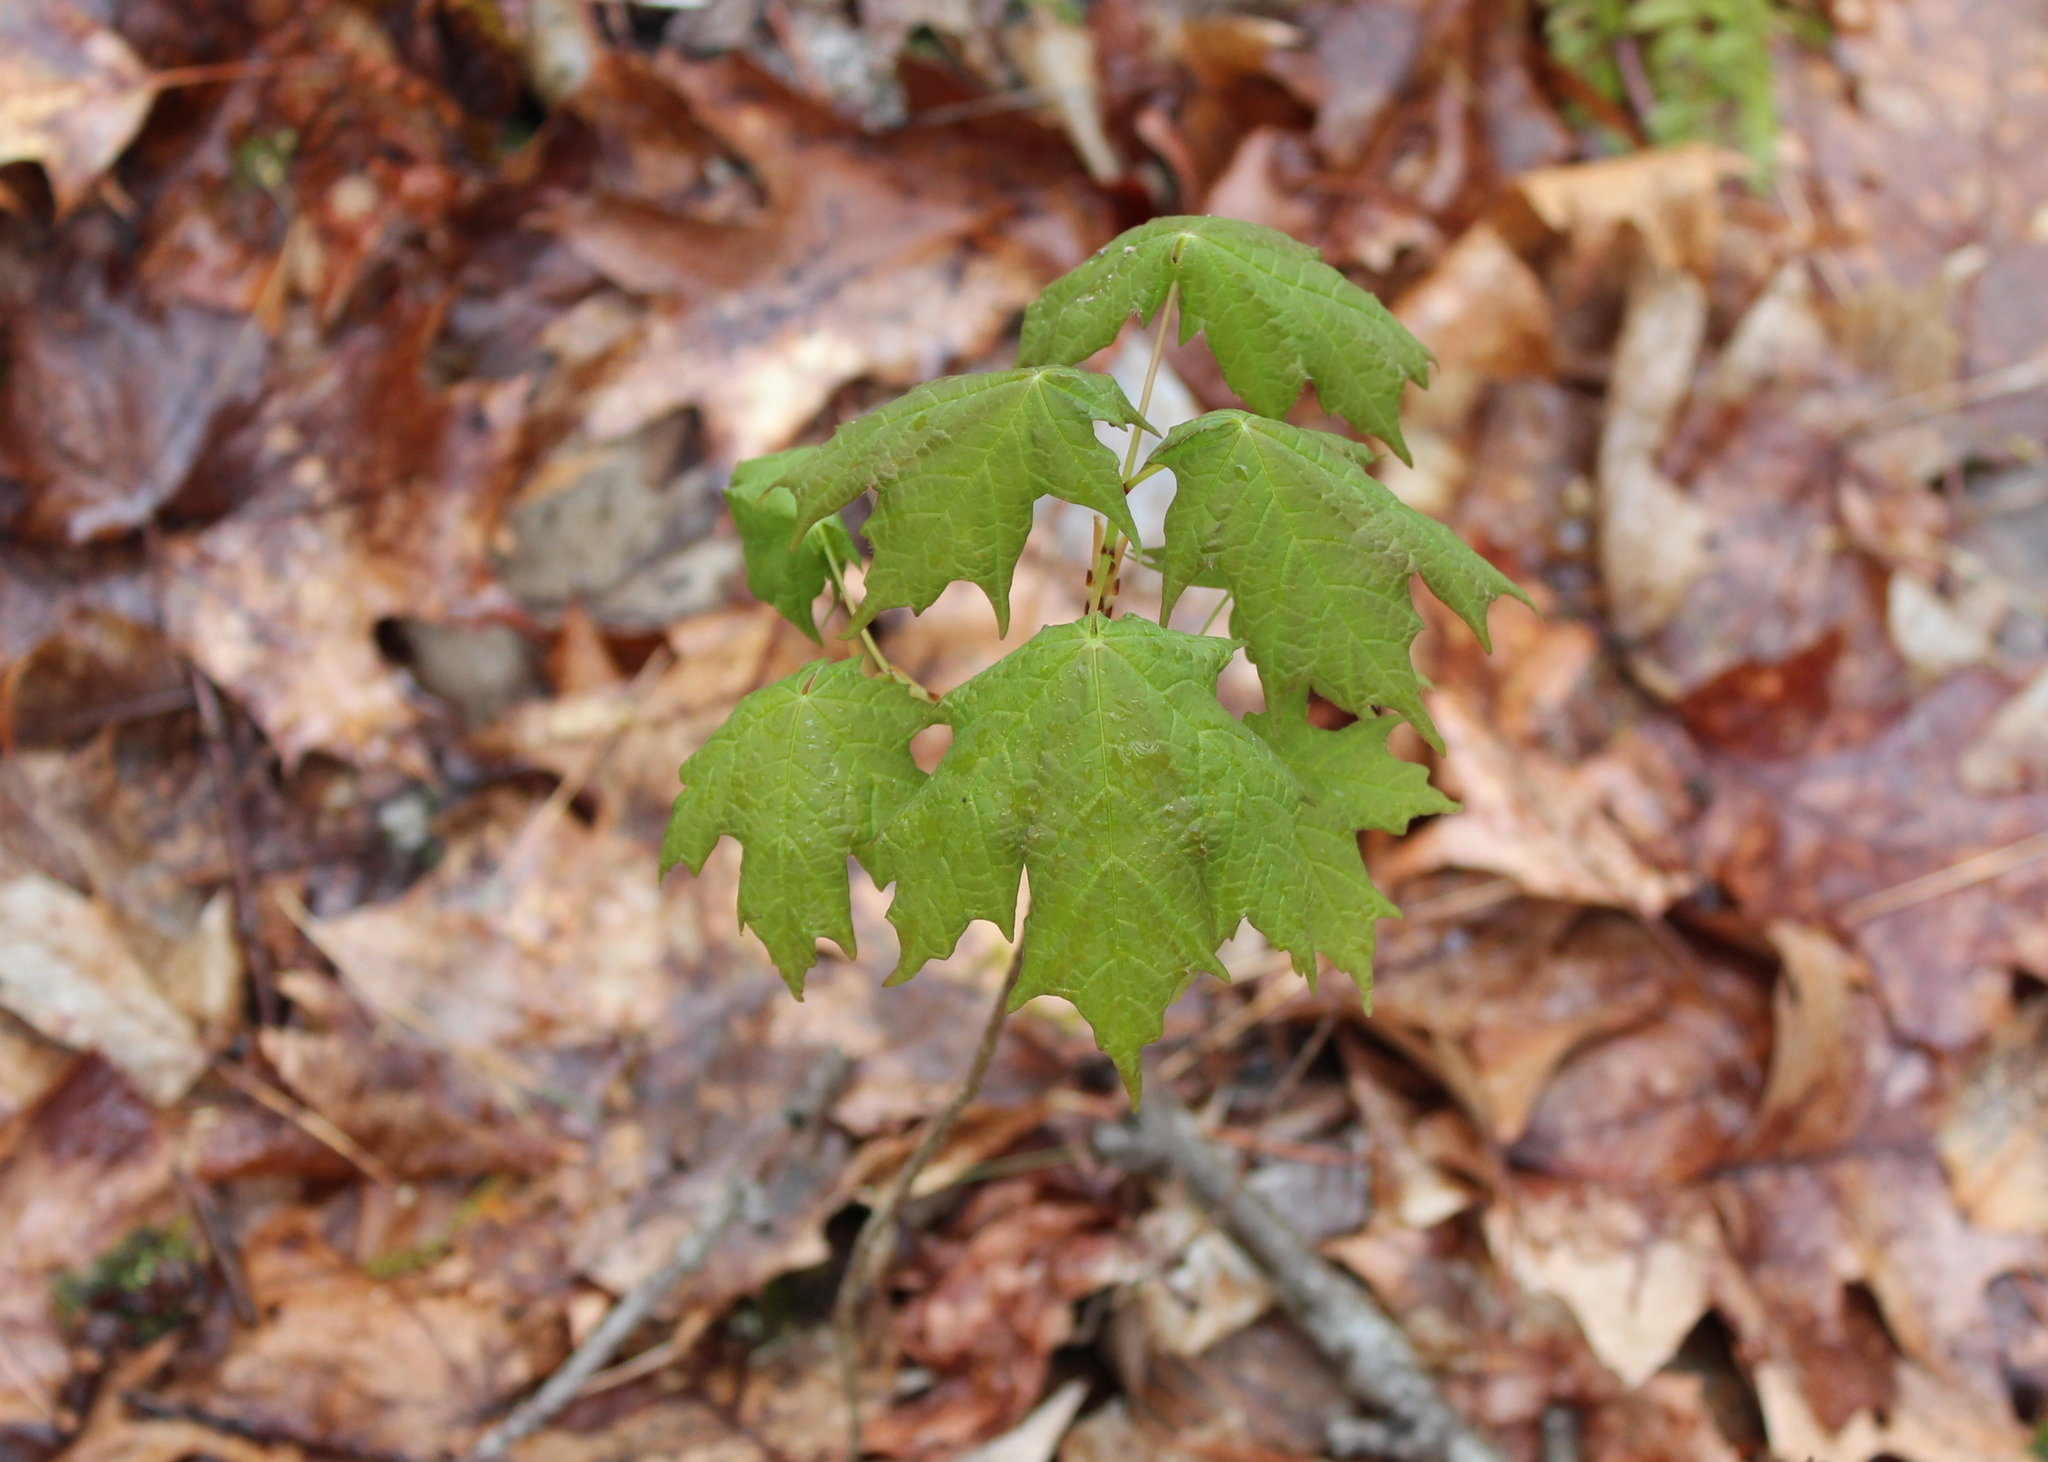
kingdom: Plantae
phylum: Tracheophyta
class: Magnoliopsida
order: Sapindales
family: Sapindaceae
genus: Acer
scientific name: Acer saccharum
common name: Sugar maple
